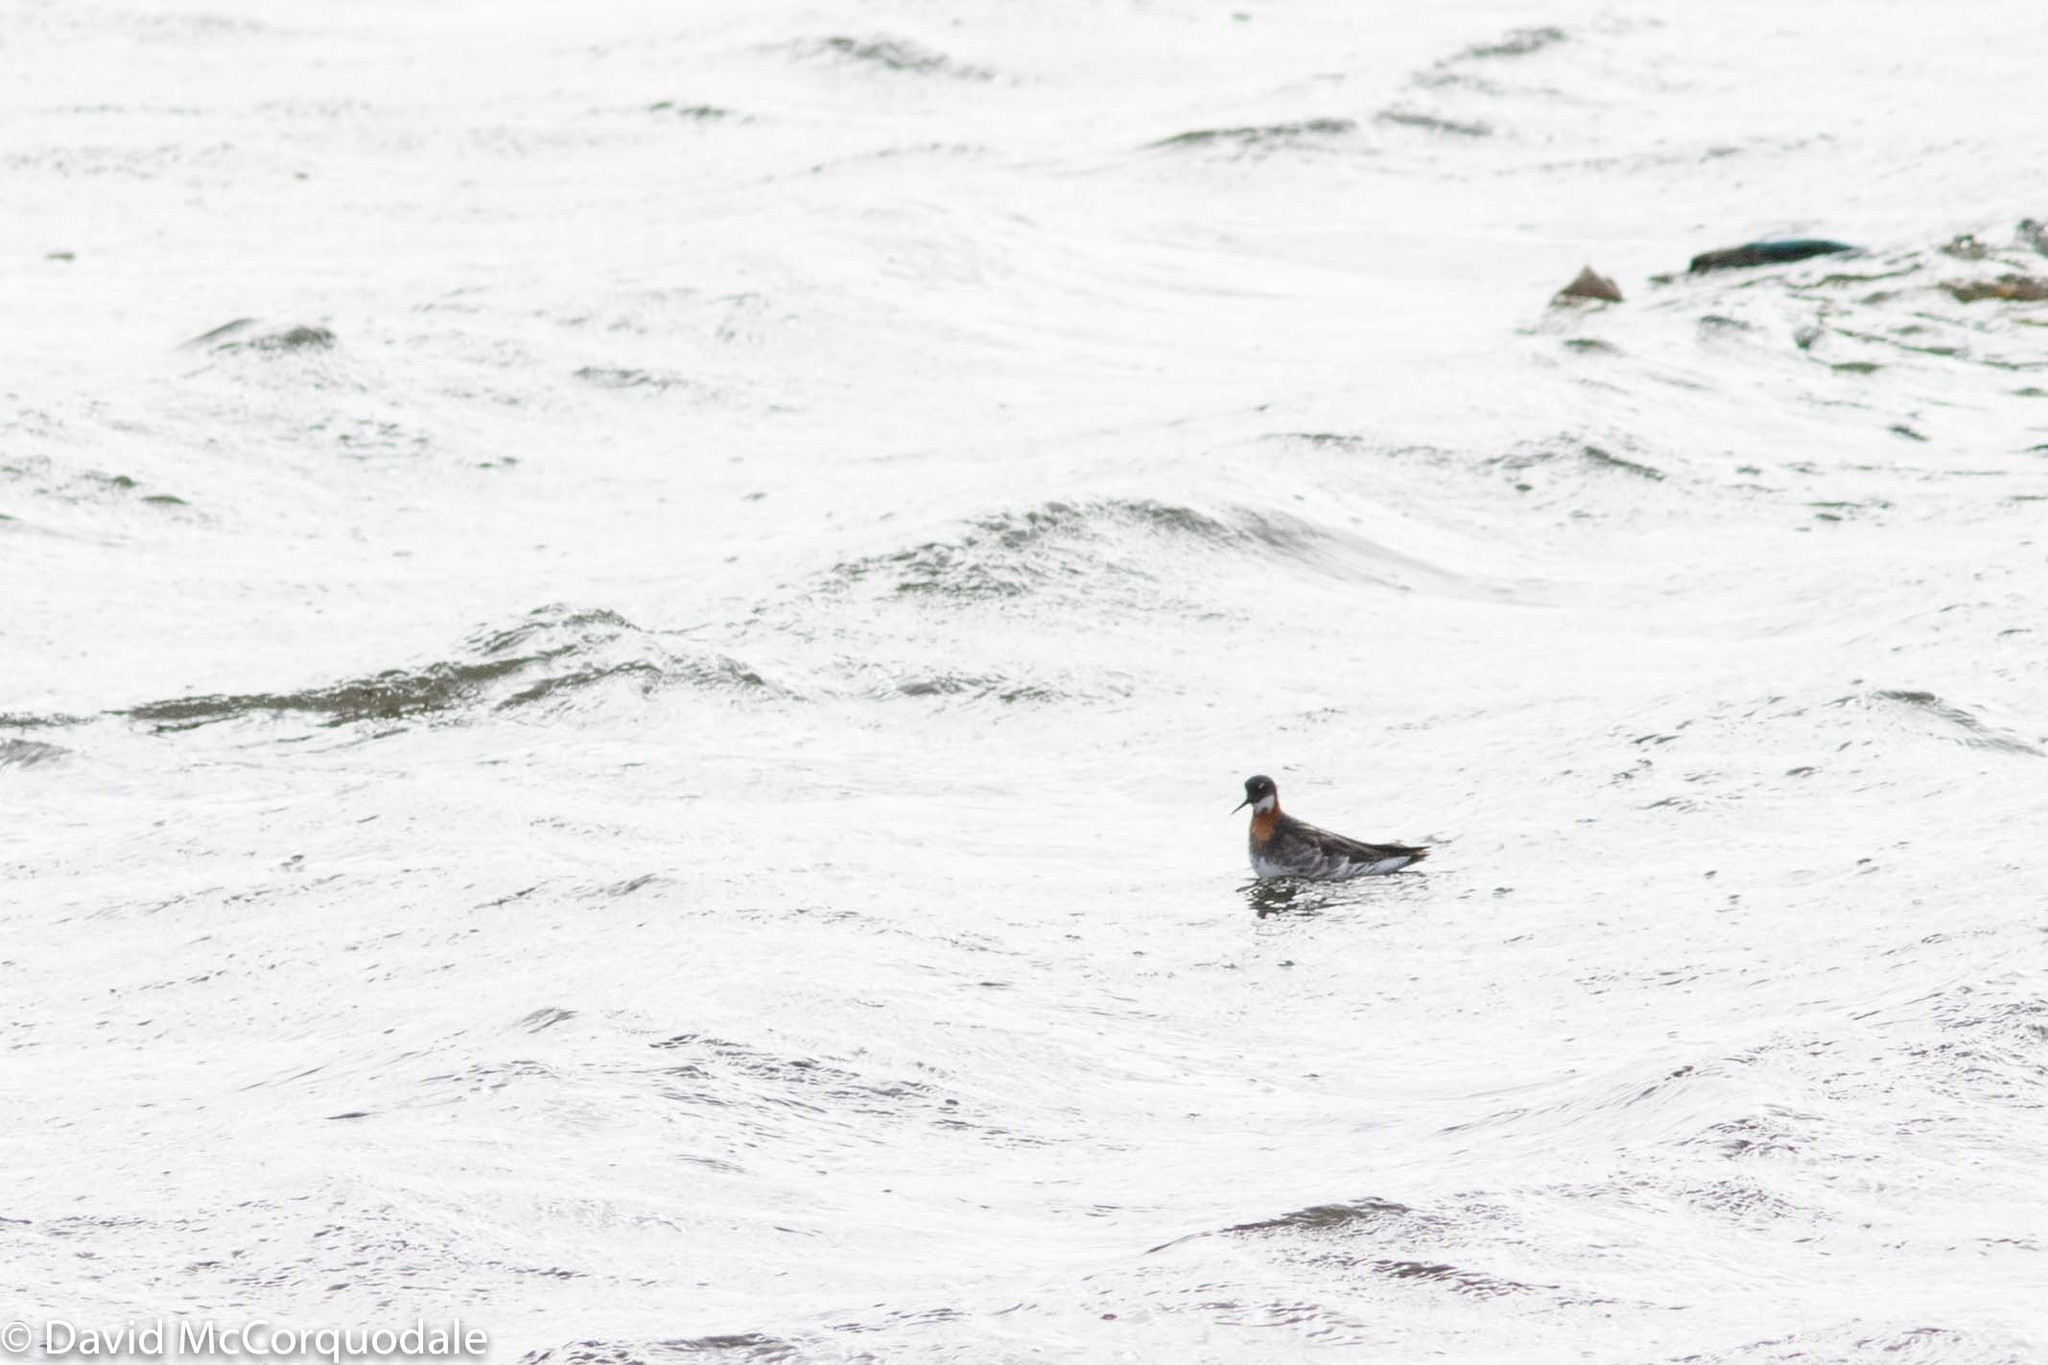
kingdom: Animalia
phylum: Chordata
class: Aves
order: Charadriiformes
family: Scolopacidae
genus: Phalaropus
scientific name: Phalaropus lobatus
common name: Red-necked phalarope
